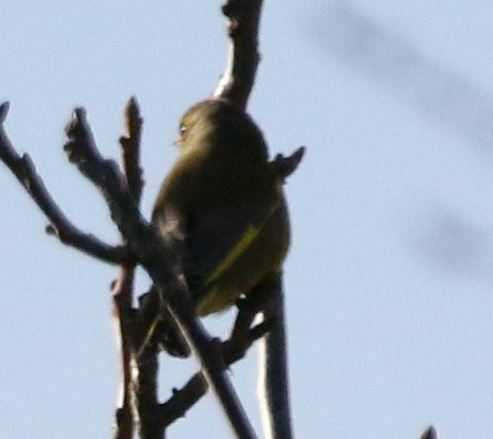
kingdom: Plantae
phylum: Tracheophyta
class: Liliopsida
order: Poales
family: Poaceae
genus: Chloris
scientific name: Chloris chloris
